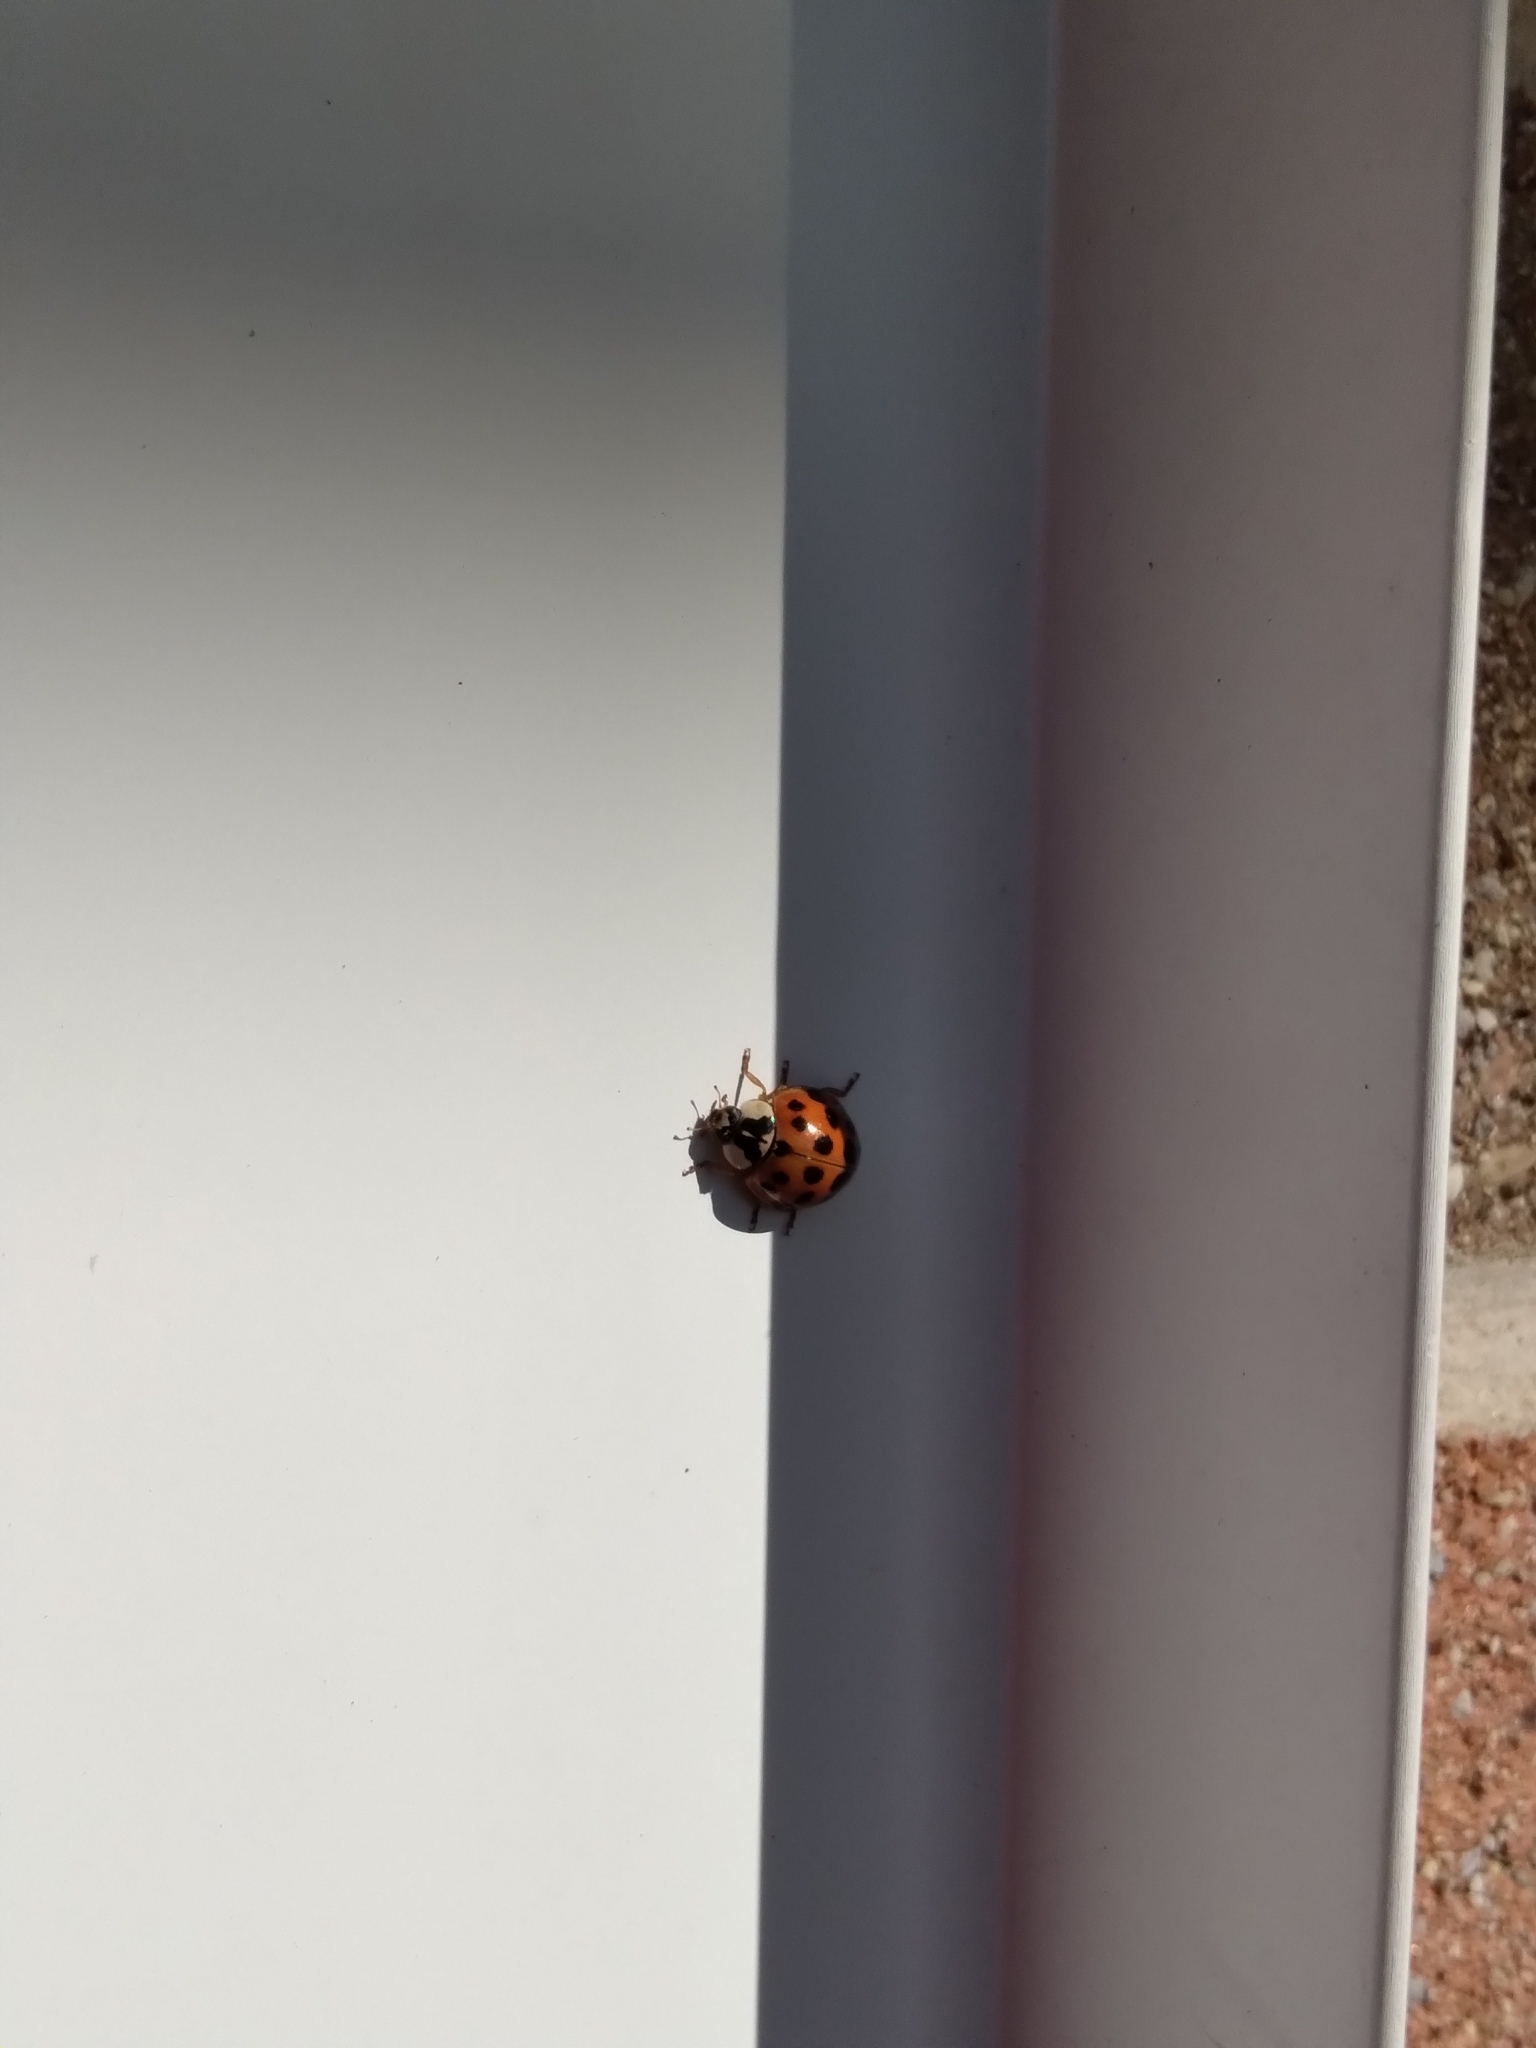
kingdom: Animalia
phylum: Arthropoda
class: Insecta
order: Coleoptera
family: Coccinellidae
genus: Harmonia
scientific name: Harmonia axyridis
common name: Harlequin ladybird
